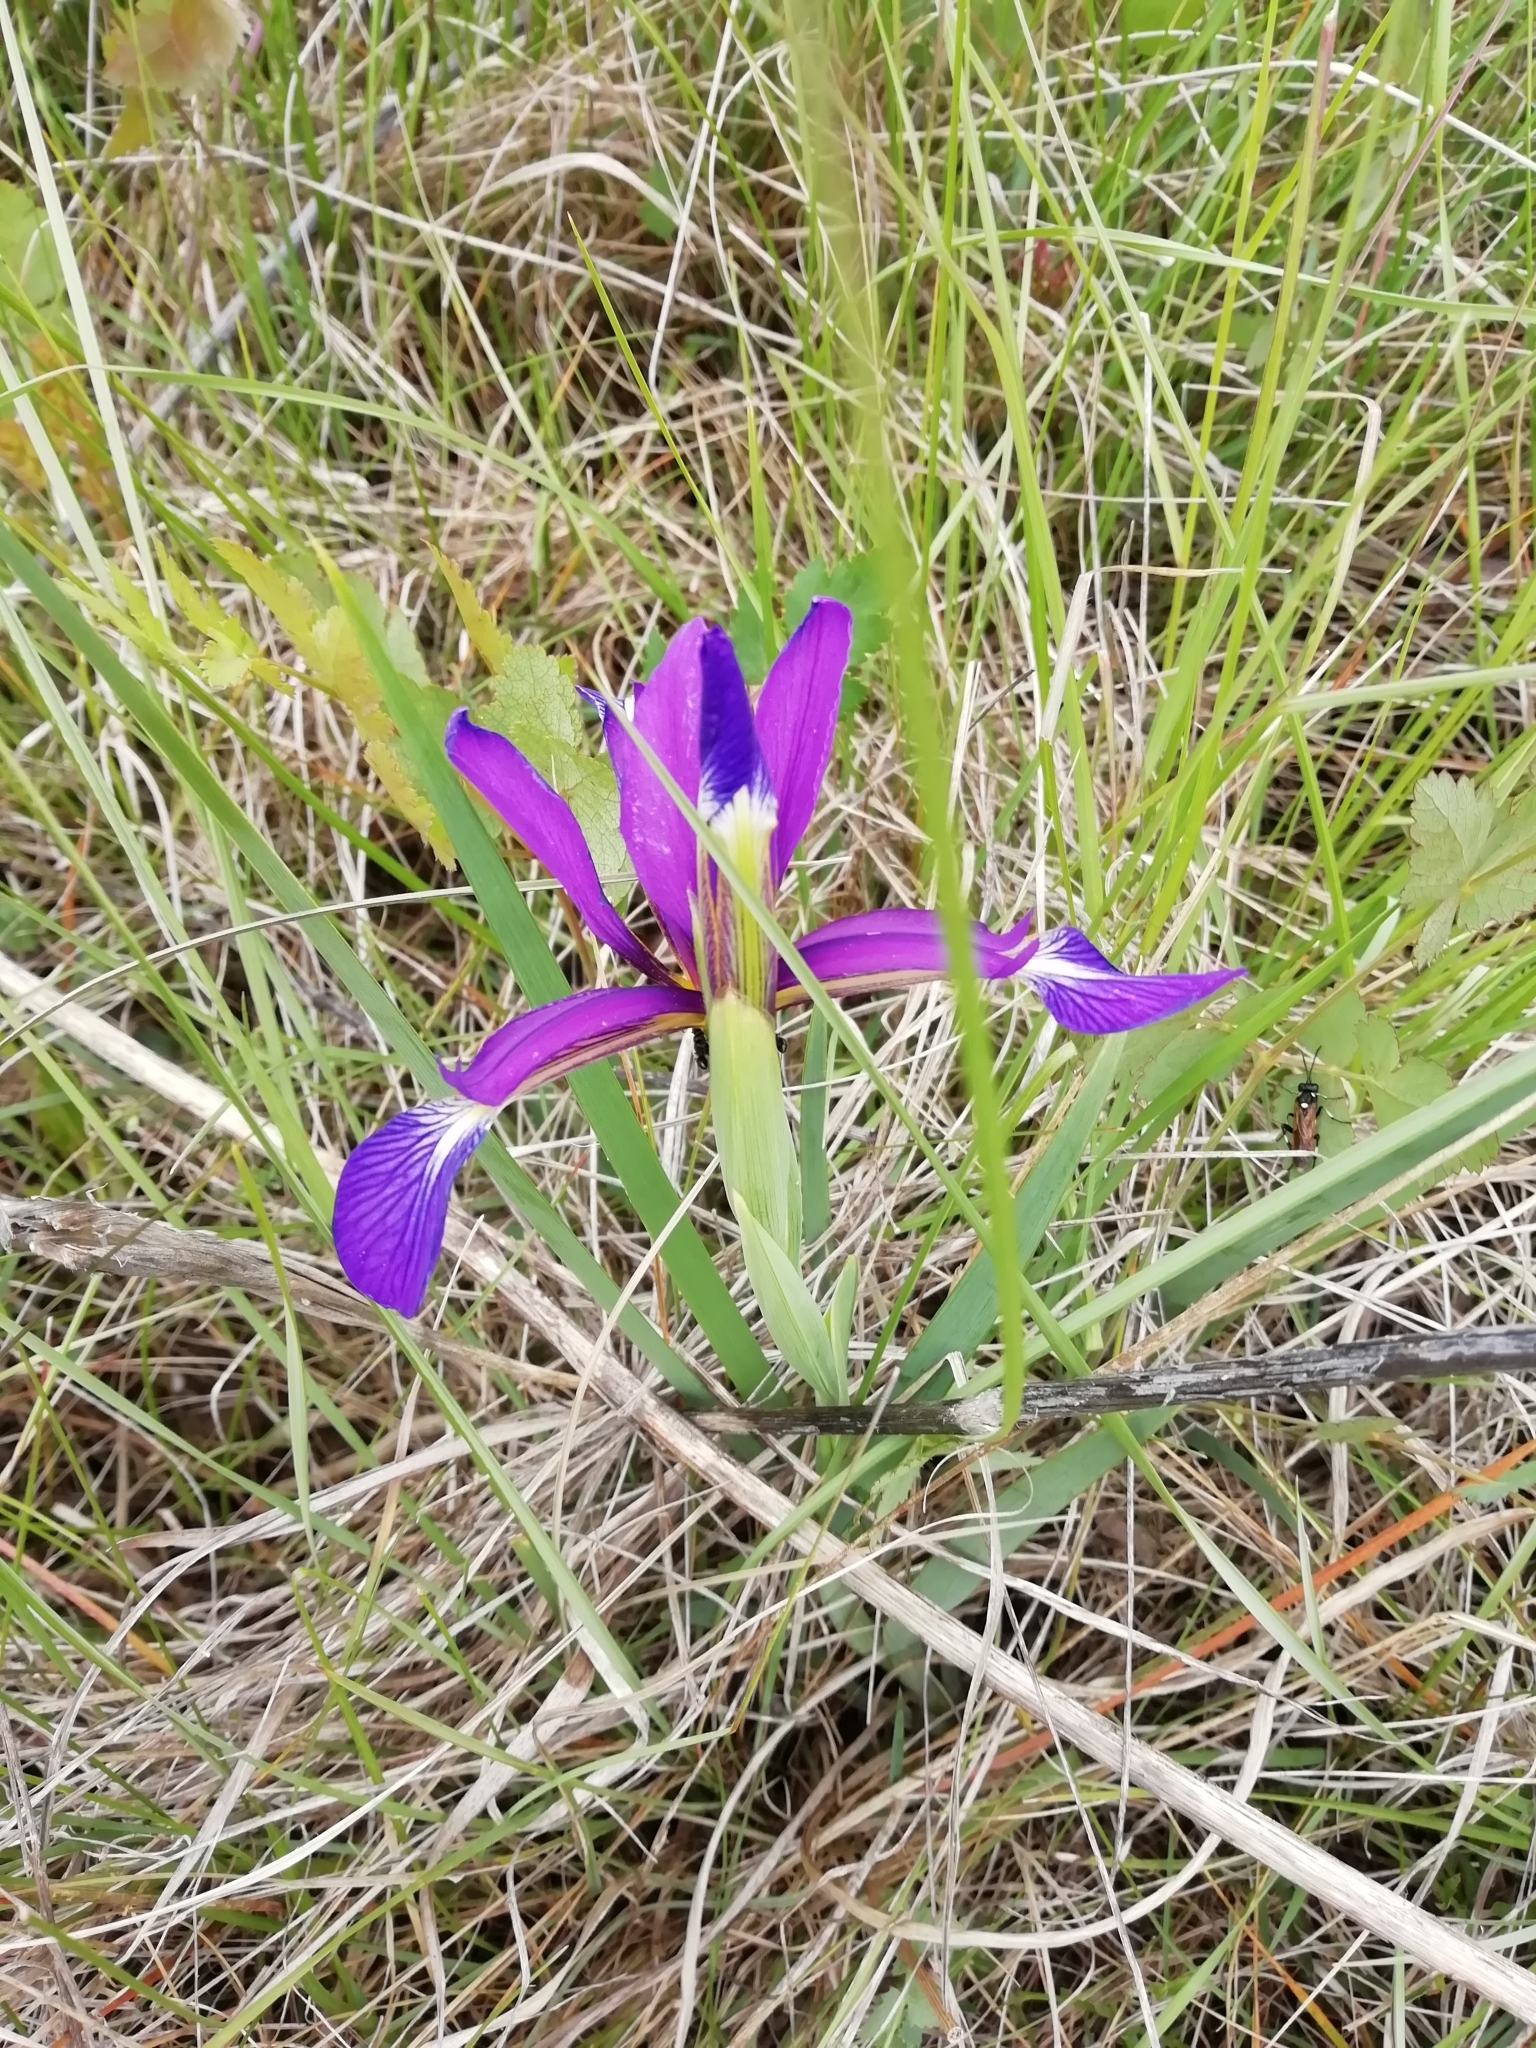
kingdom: Plantae
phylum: Tracheophyta
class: Liliopsida
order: Asparagales
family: Iridaceae
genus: Iris
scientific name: Iris reichenbachiana
